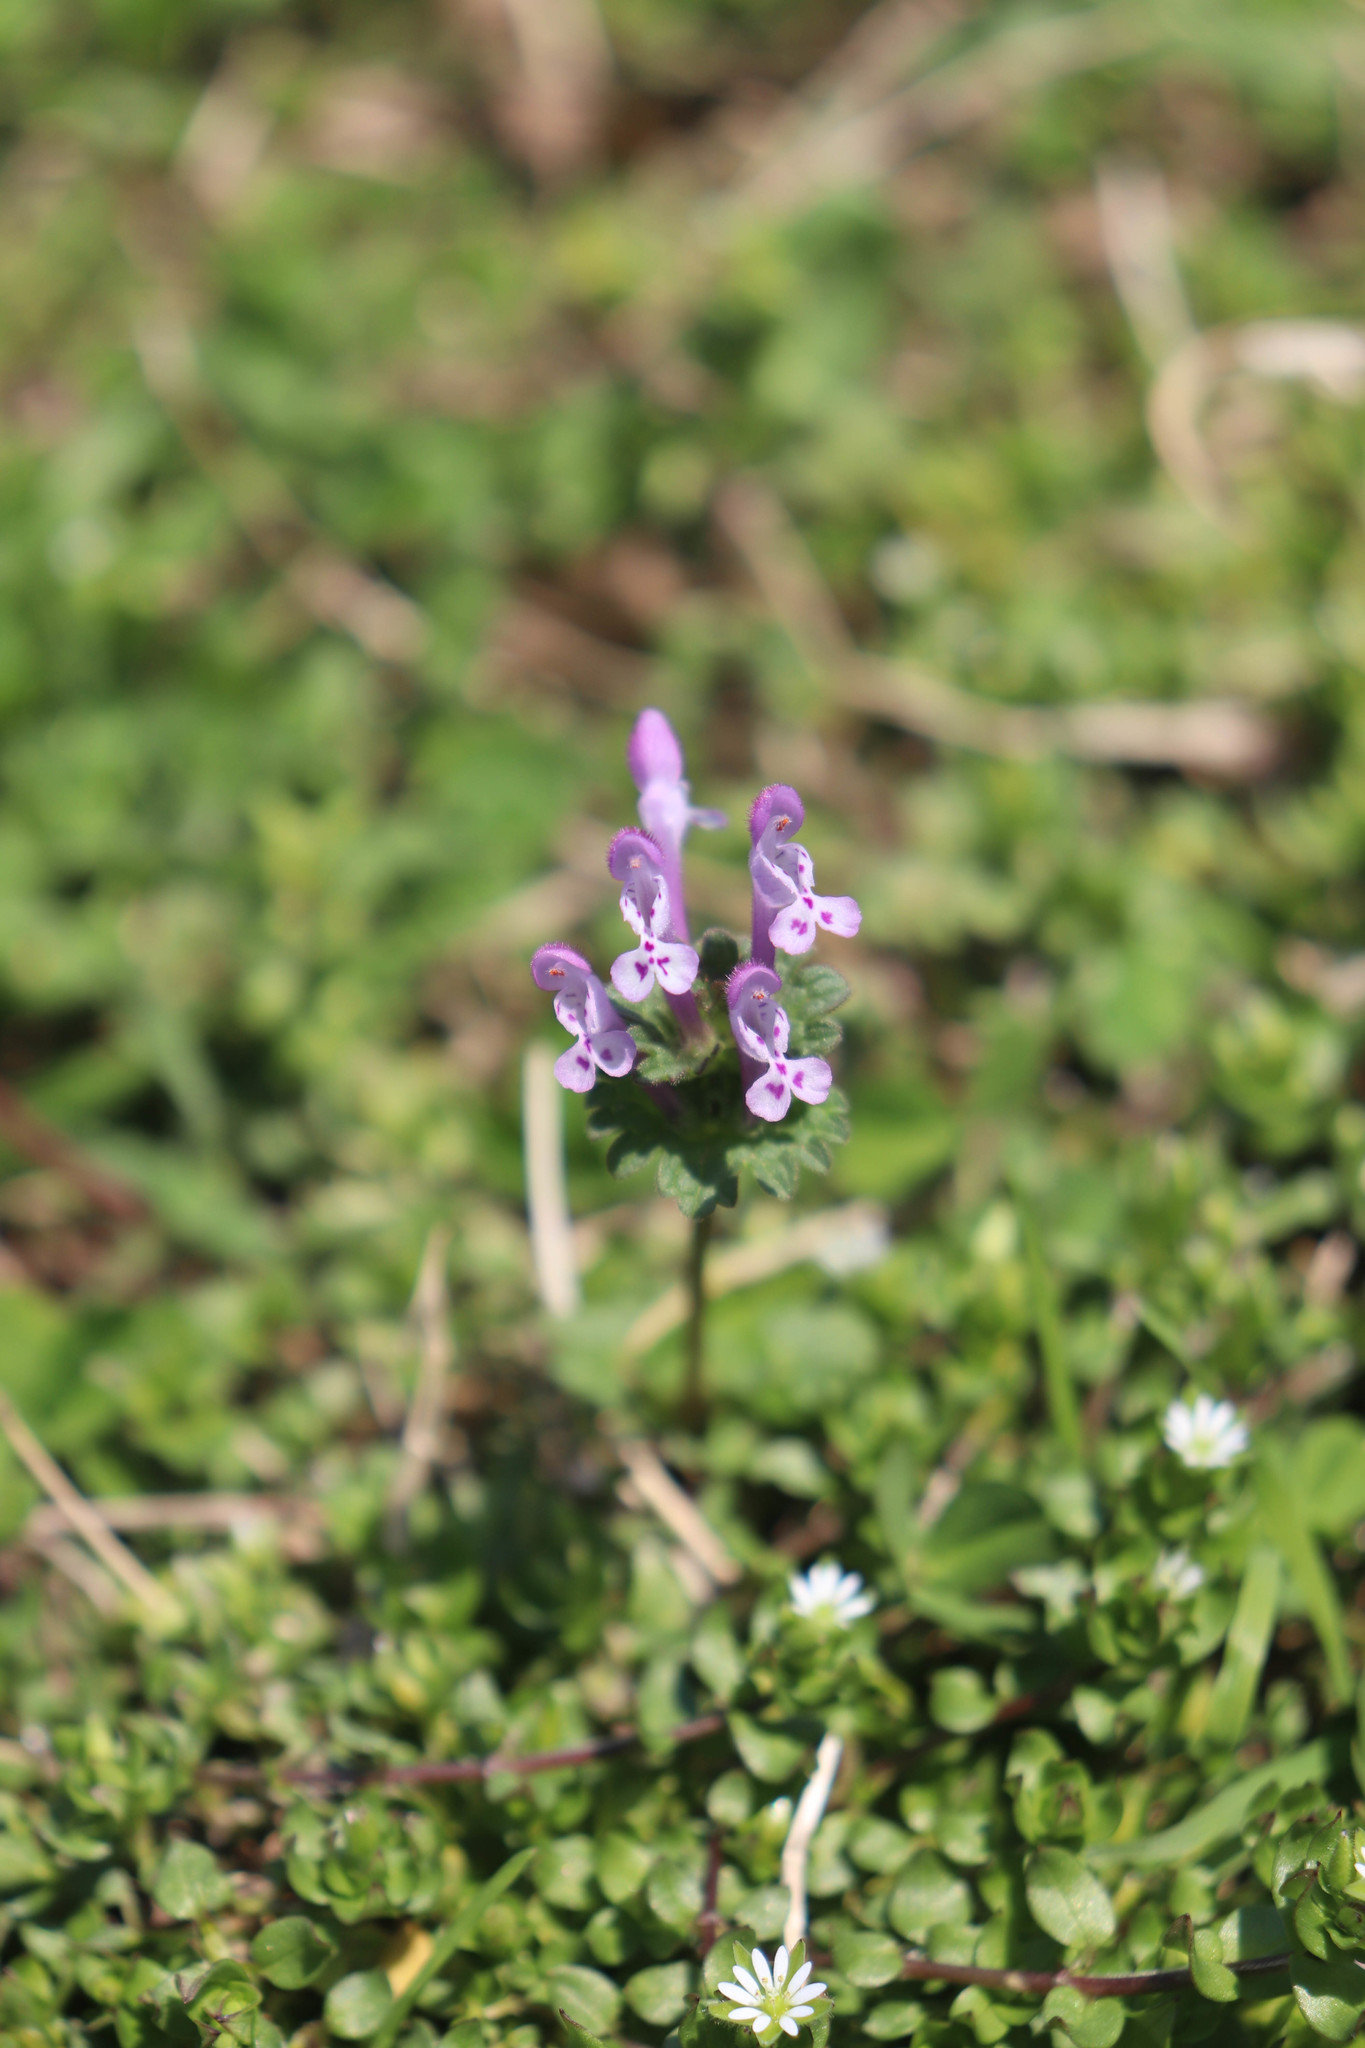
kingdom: Plantae
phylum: Tracheophyta
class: Magnoliopsida
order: Lamiales
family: Lamiaceae
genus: Lamium
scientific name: Lamium amplexicaule
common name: Henbit dead-nettle
